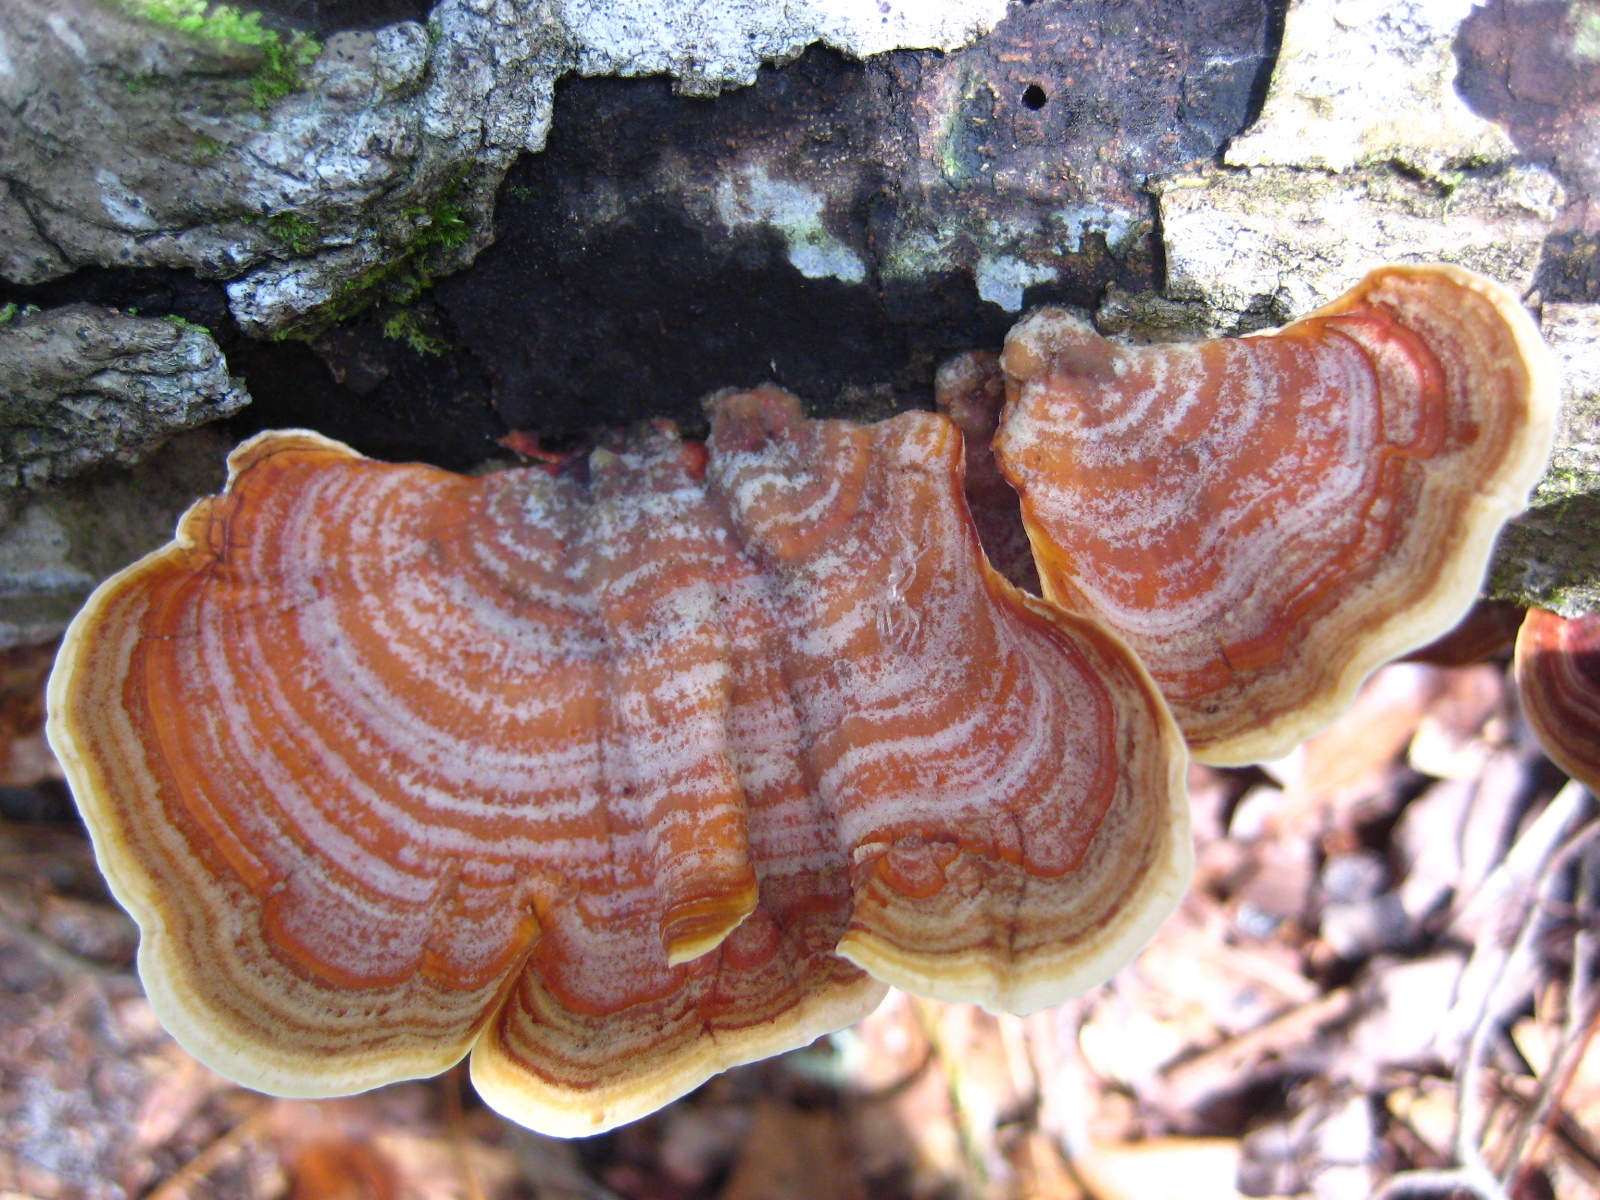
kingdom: Fungi
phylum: Basidiomycota
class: Agaricomycetes
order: Russulales
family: Stereaceae
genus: Stereum
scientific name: Stereum ostrea
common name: False turkeytail
